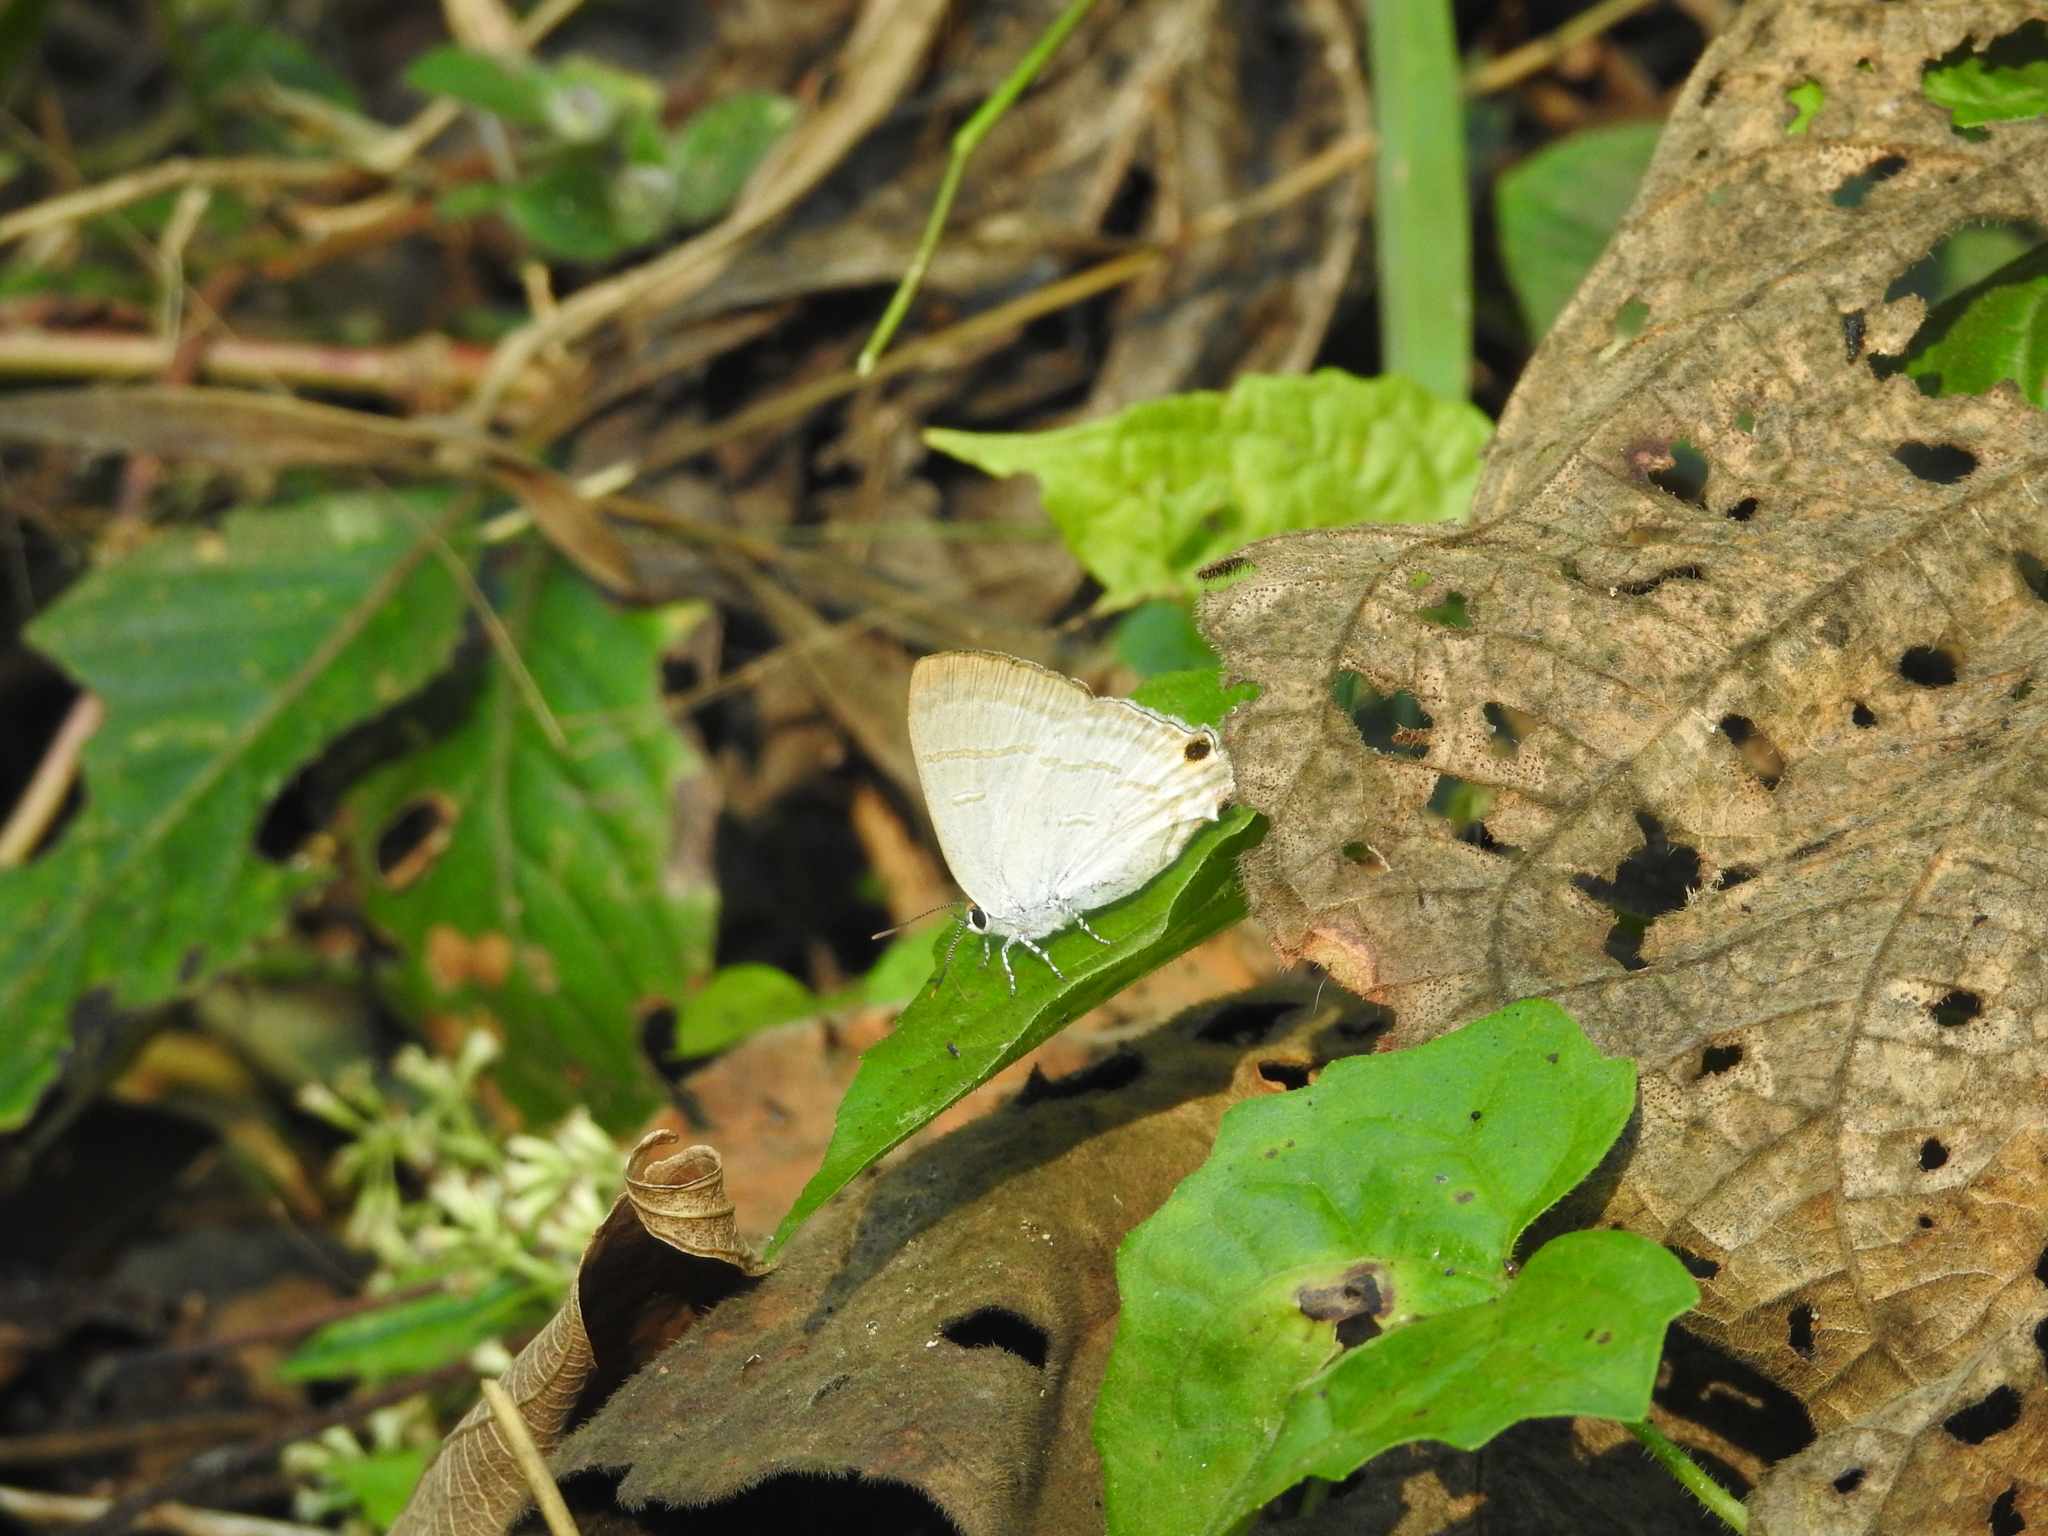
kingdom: Animalia
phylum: Arthropoda
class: Insecta
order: Lepidoptera
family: Lycaenidae
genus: Hypolycaena
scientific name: Hypolycaena erylus
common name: Common tit
